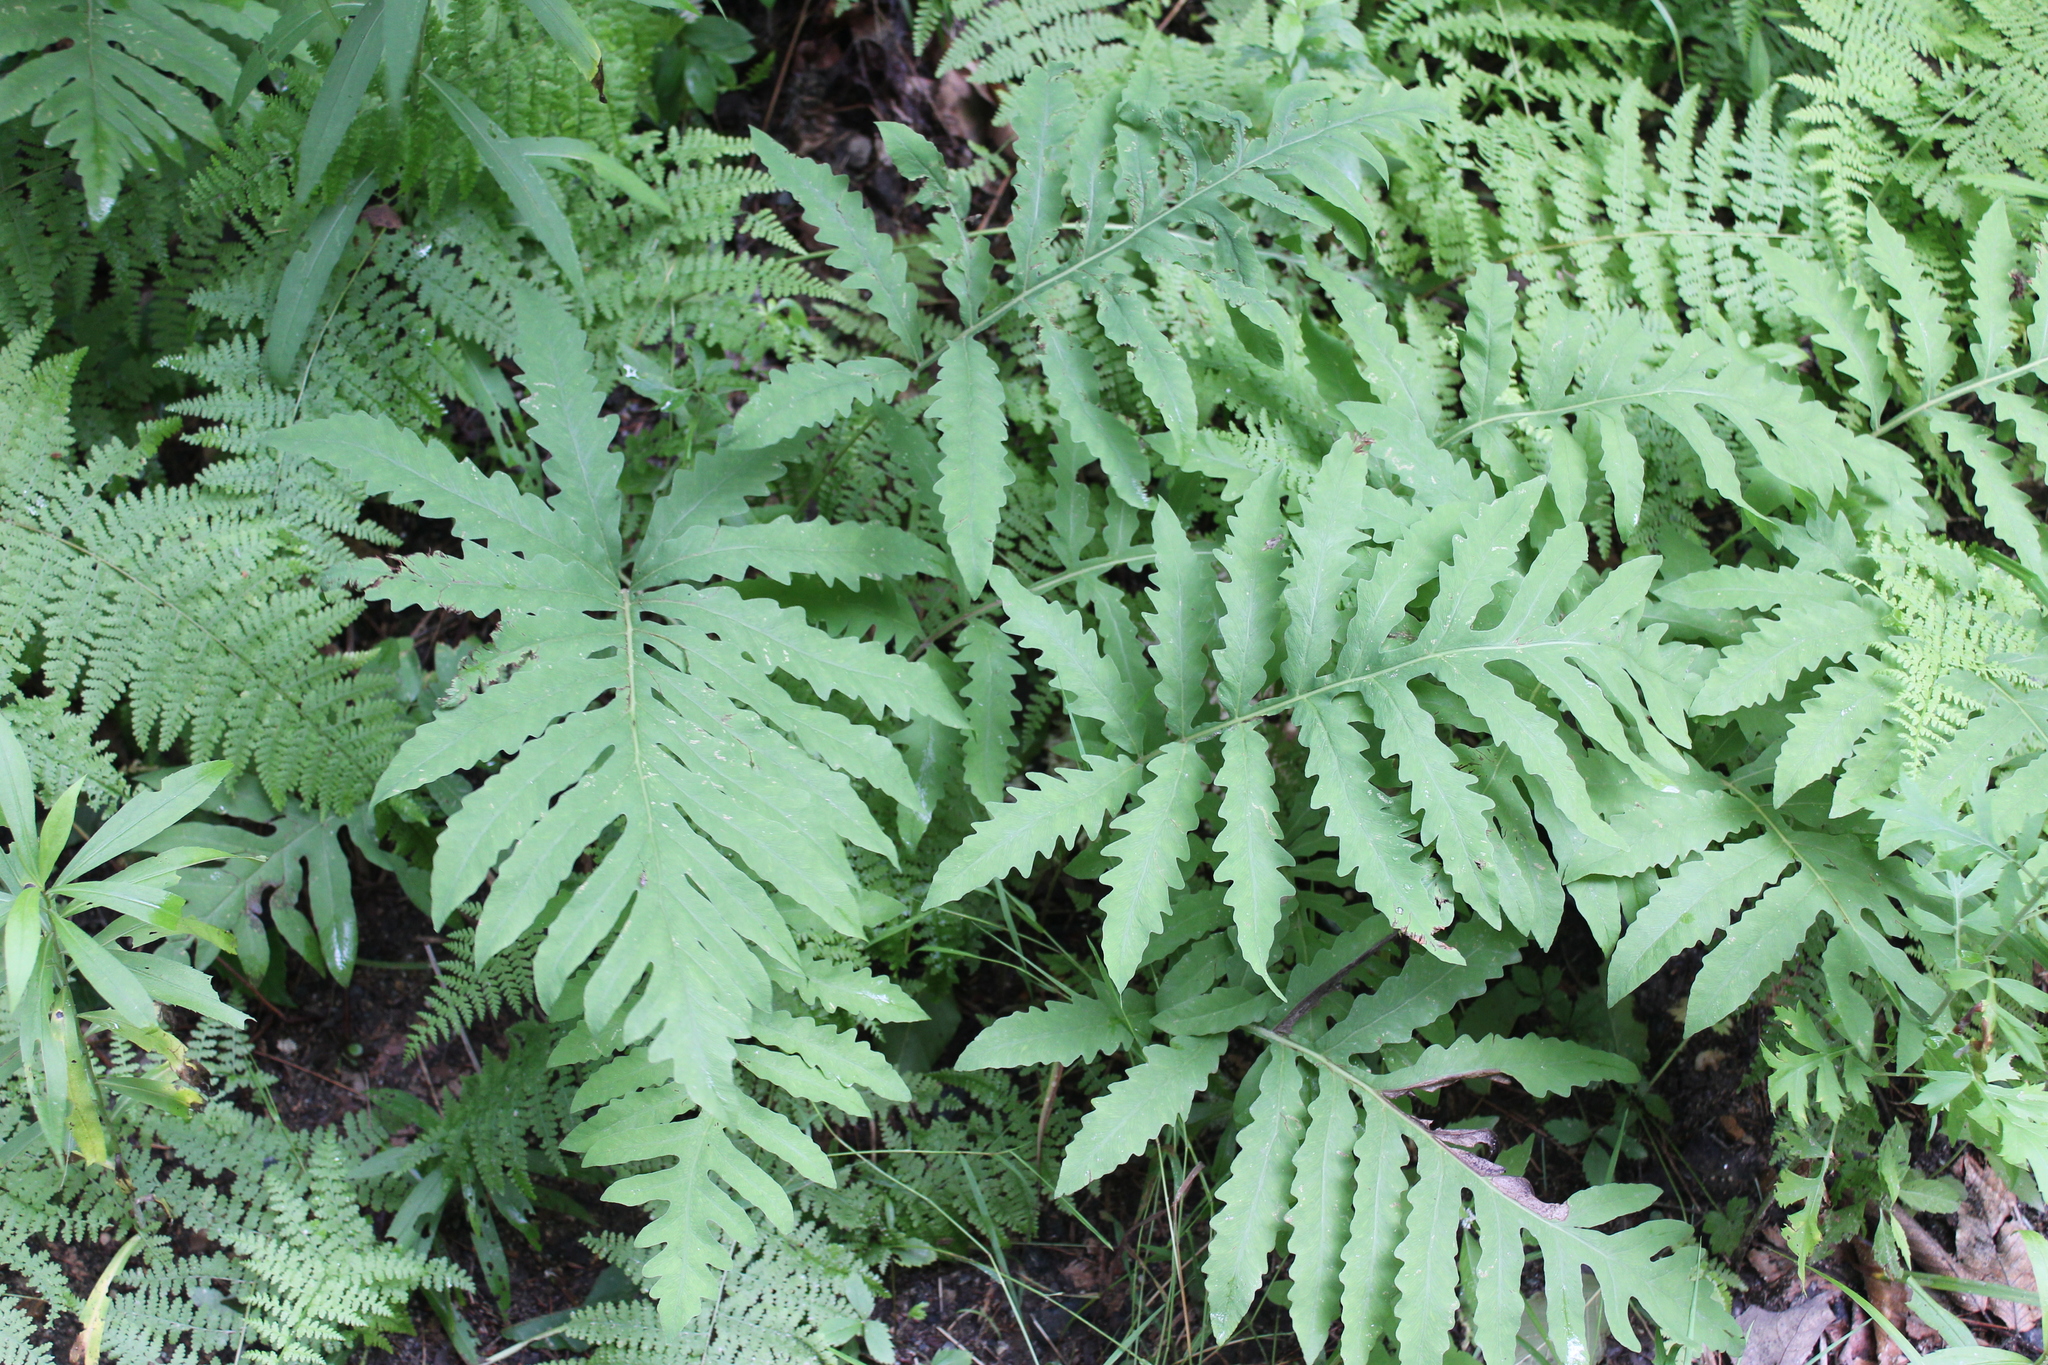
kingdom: Plantae
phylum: Tracheophyta
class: Polypodiopsida
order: Polypodiales
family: Onocleaceae
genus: Onoclea
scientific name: Onoclea sensibilis
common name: Sensitive fern
